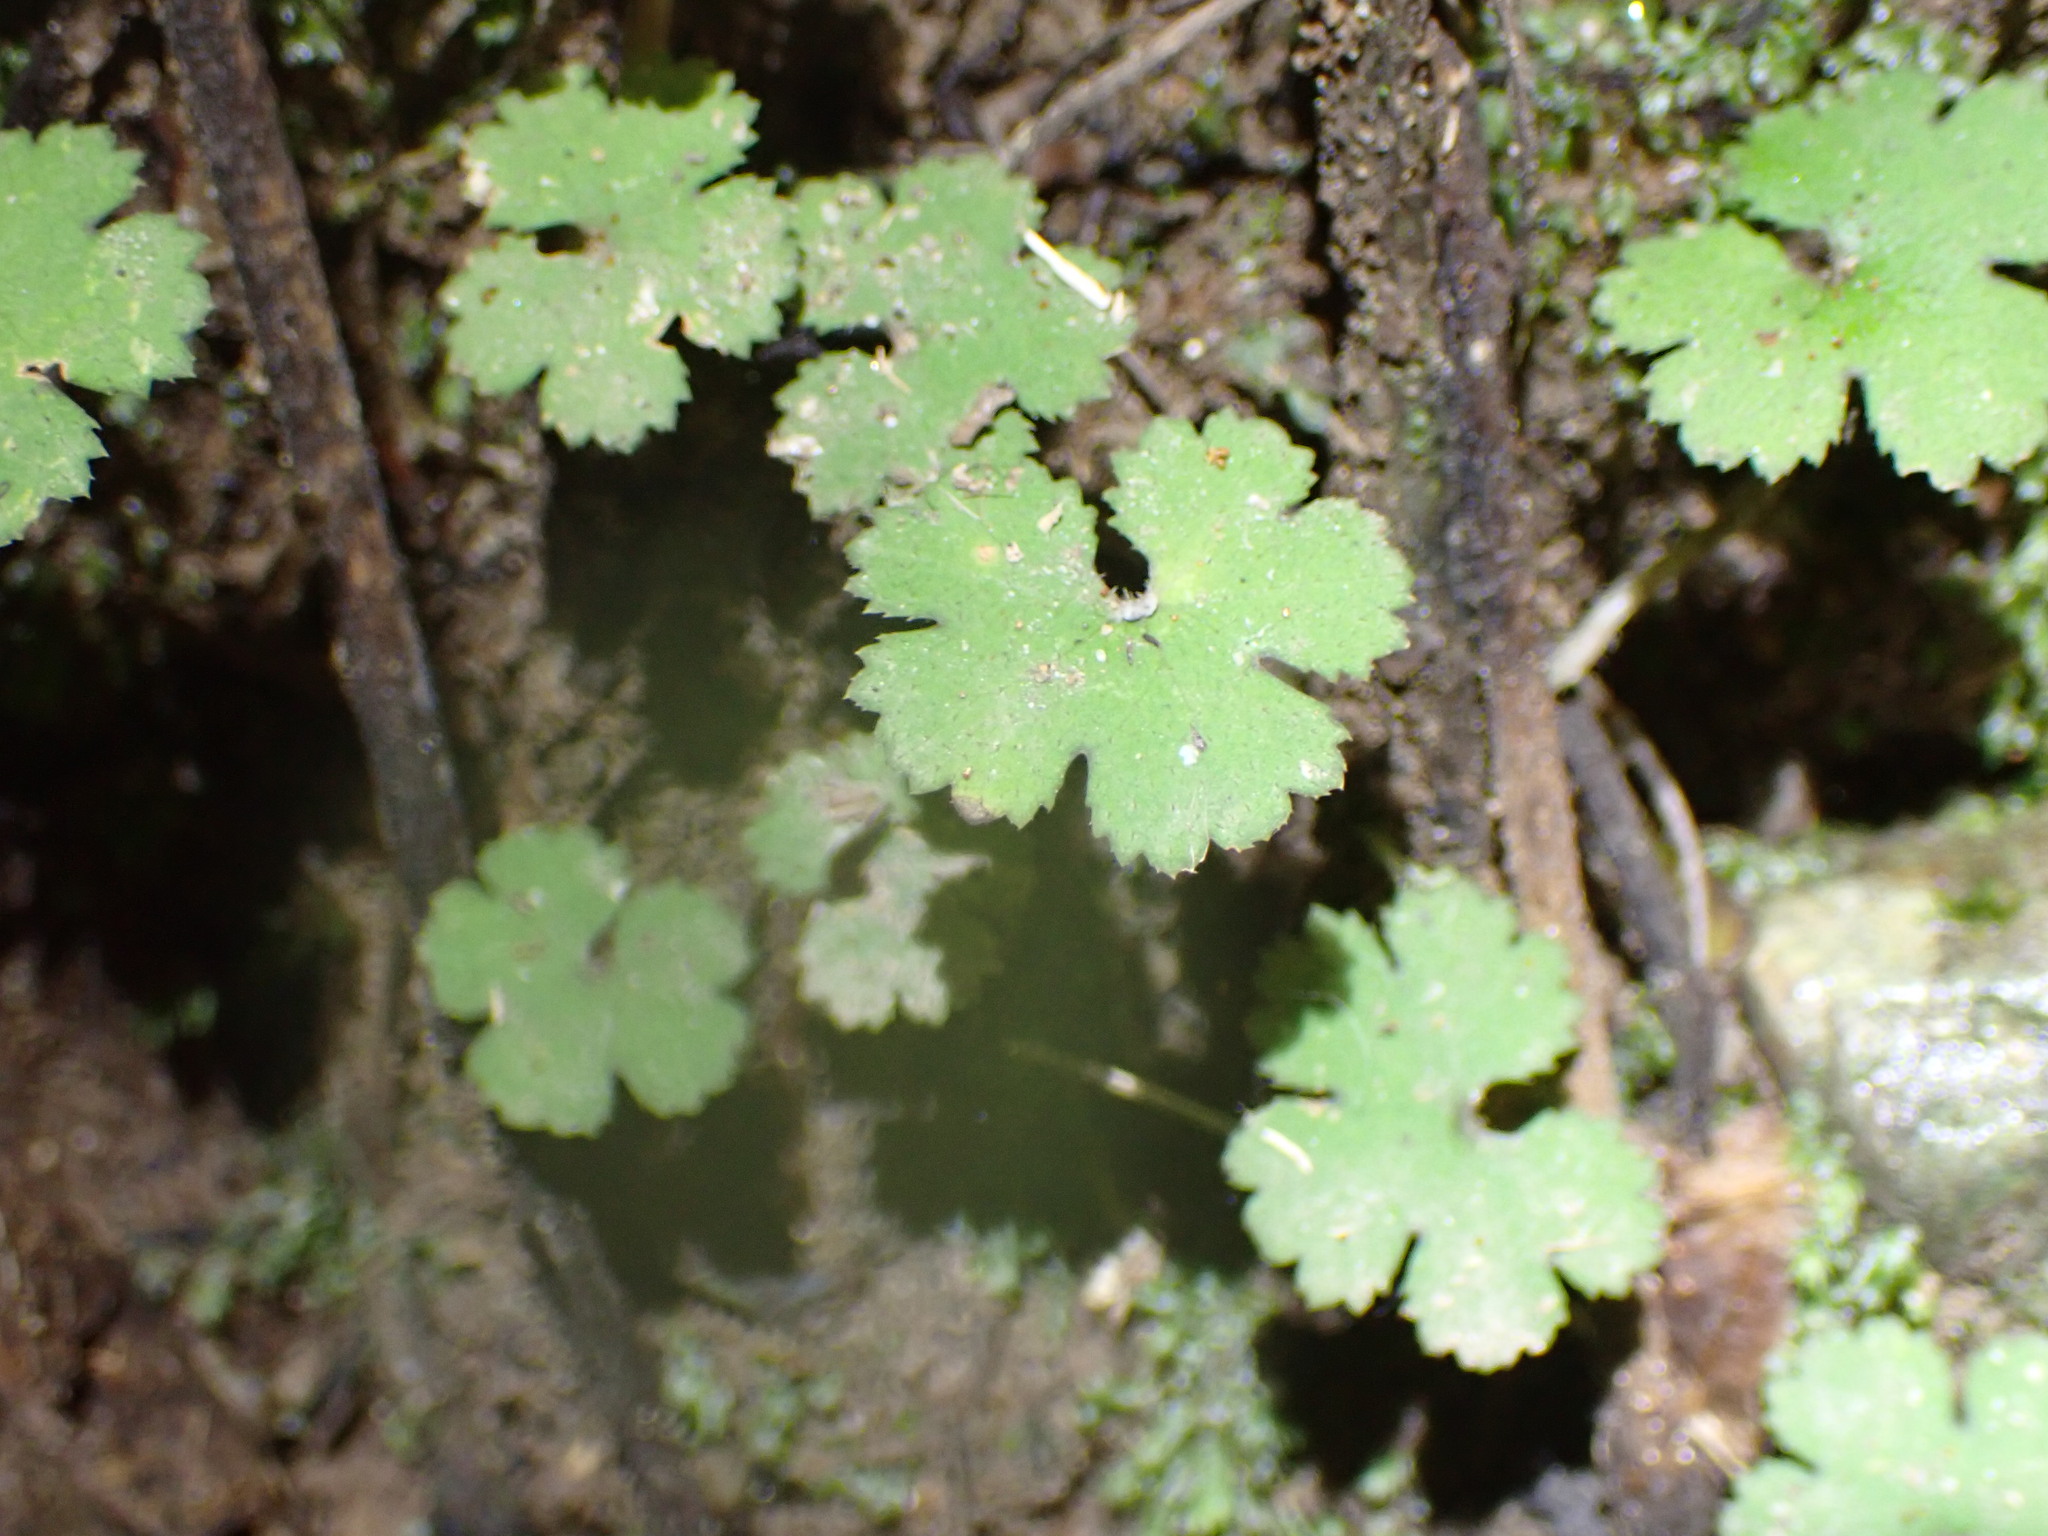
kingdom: Plantae
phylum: Tracheophyta
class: Magnoliopsida
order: Apiales
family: Araliaceae
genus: Hydrocotyle
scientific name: Hydrocotyle elongata
